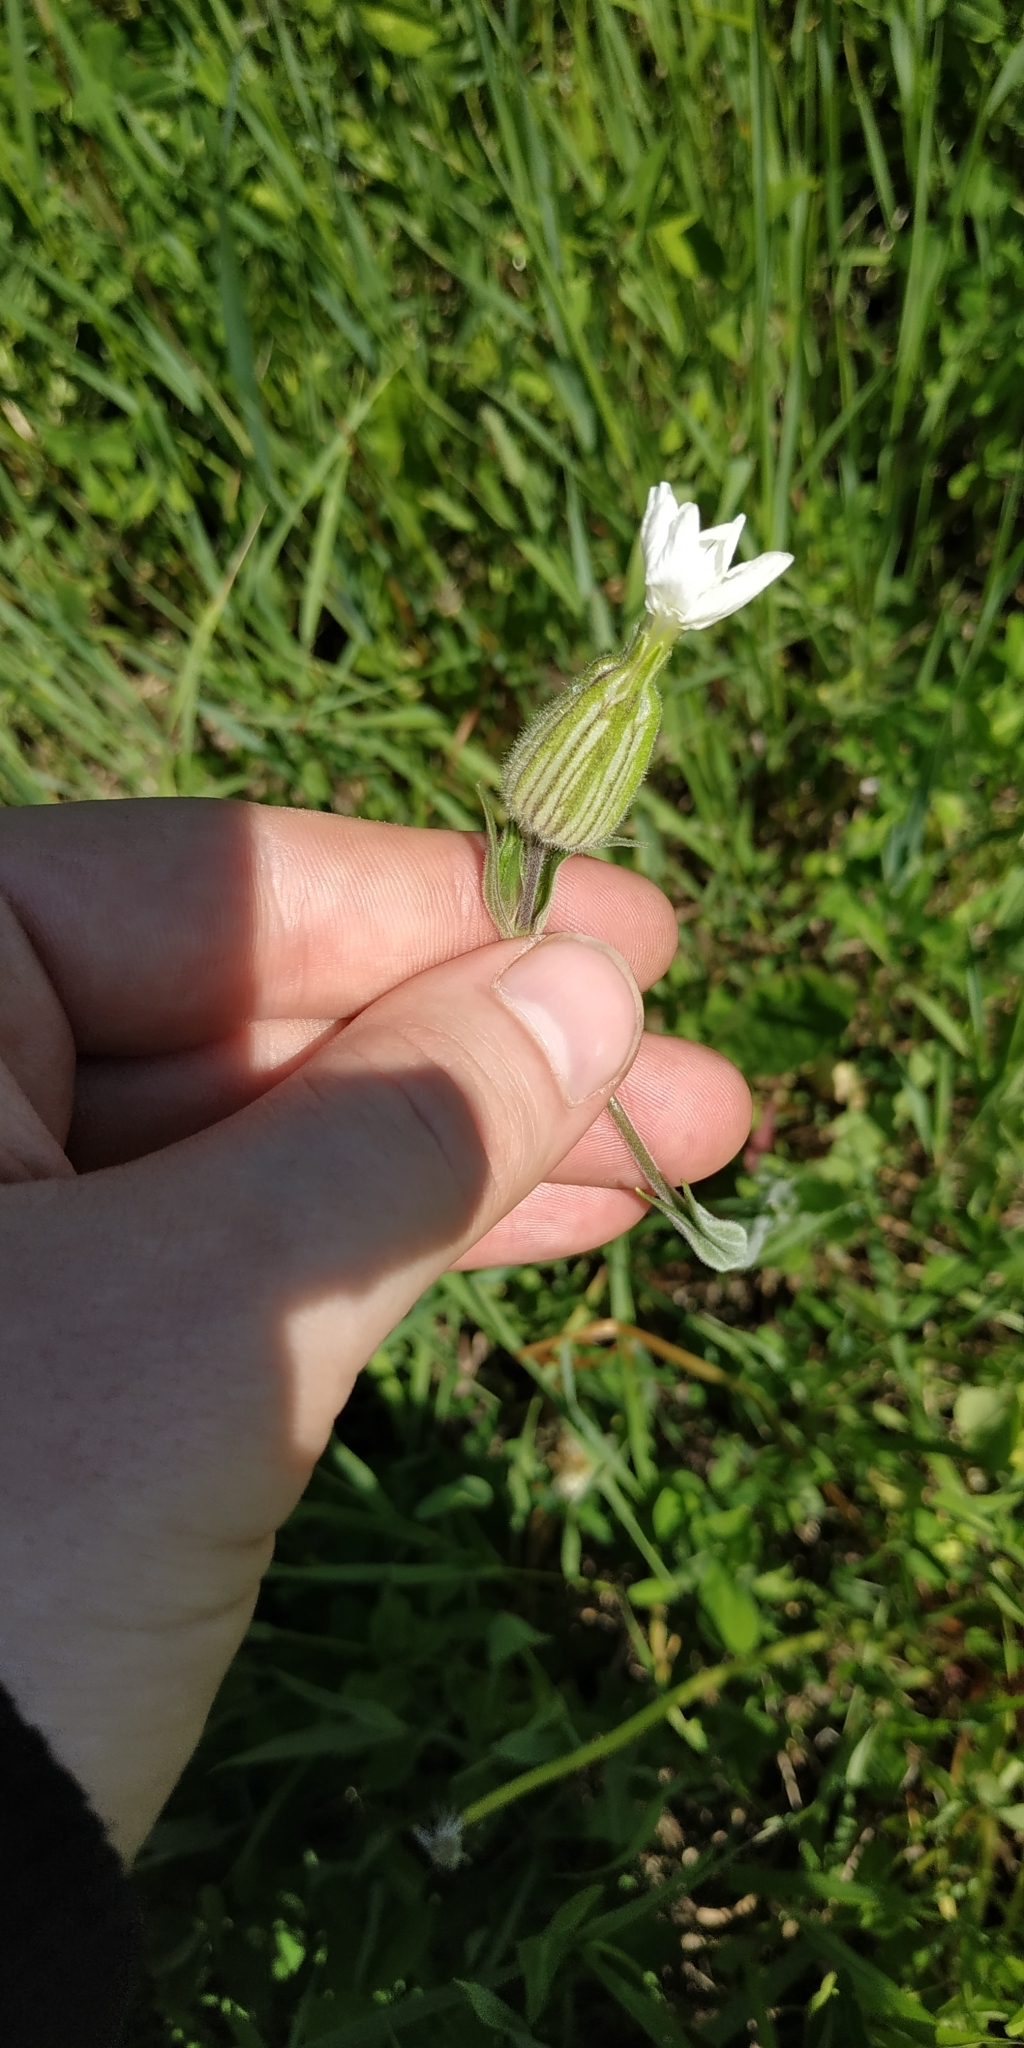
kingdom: Plantae
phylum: Tracheophyta
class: Magnoliopsida
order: Caryophyllales
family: Caryophyllaceae
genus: Silene
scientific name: Silene latifolia
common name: White campion
